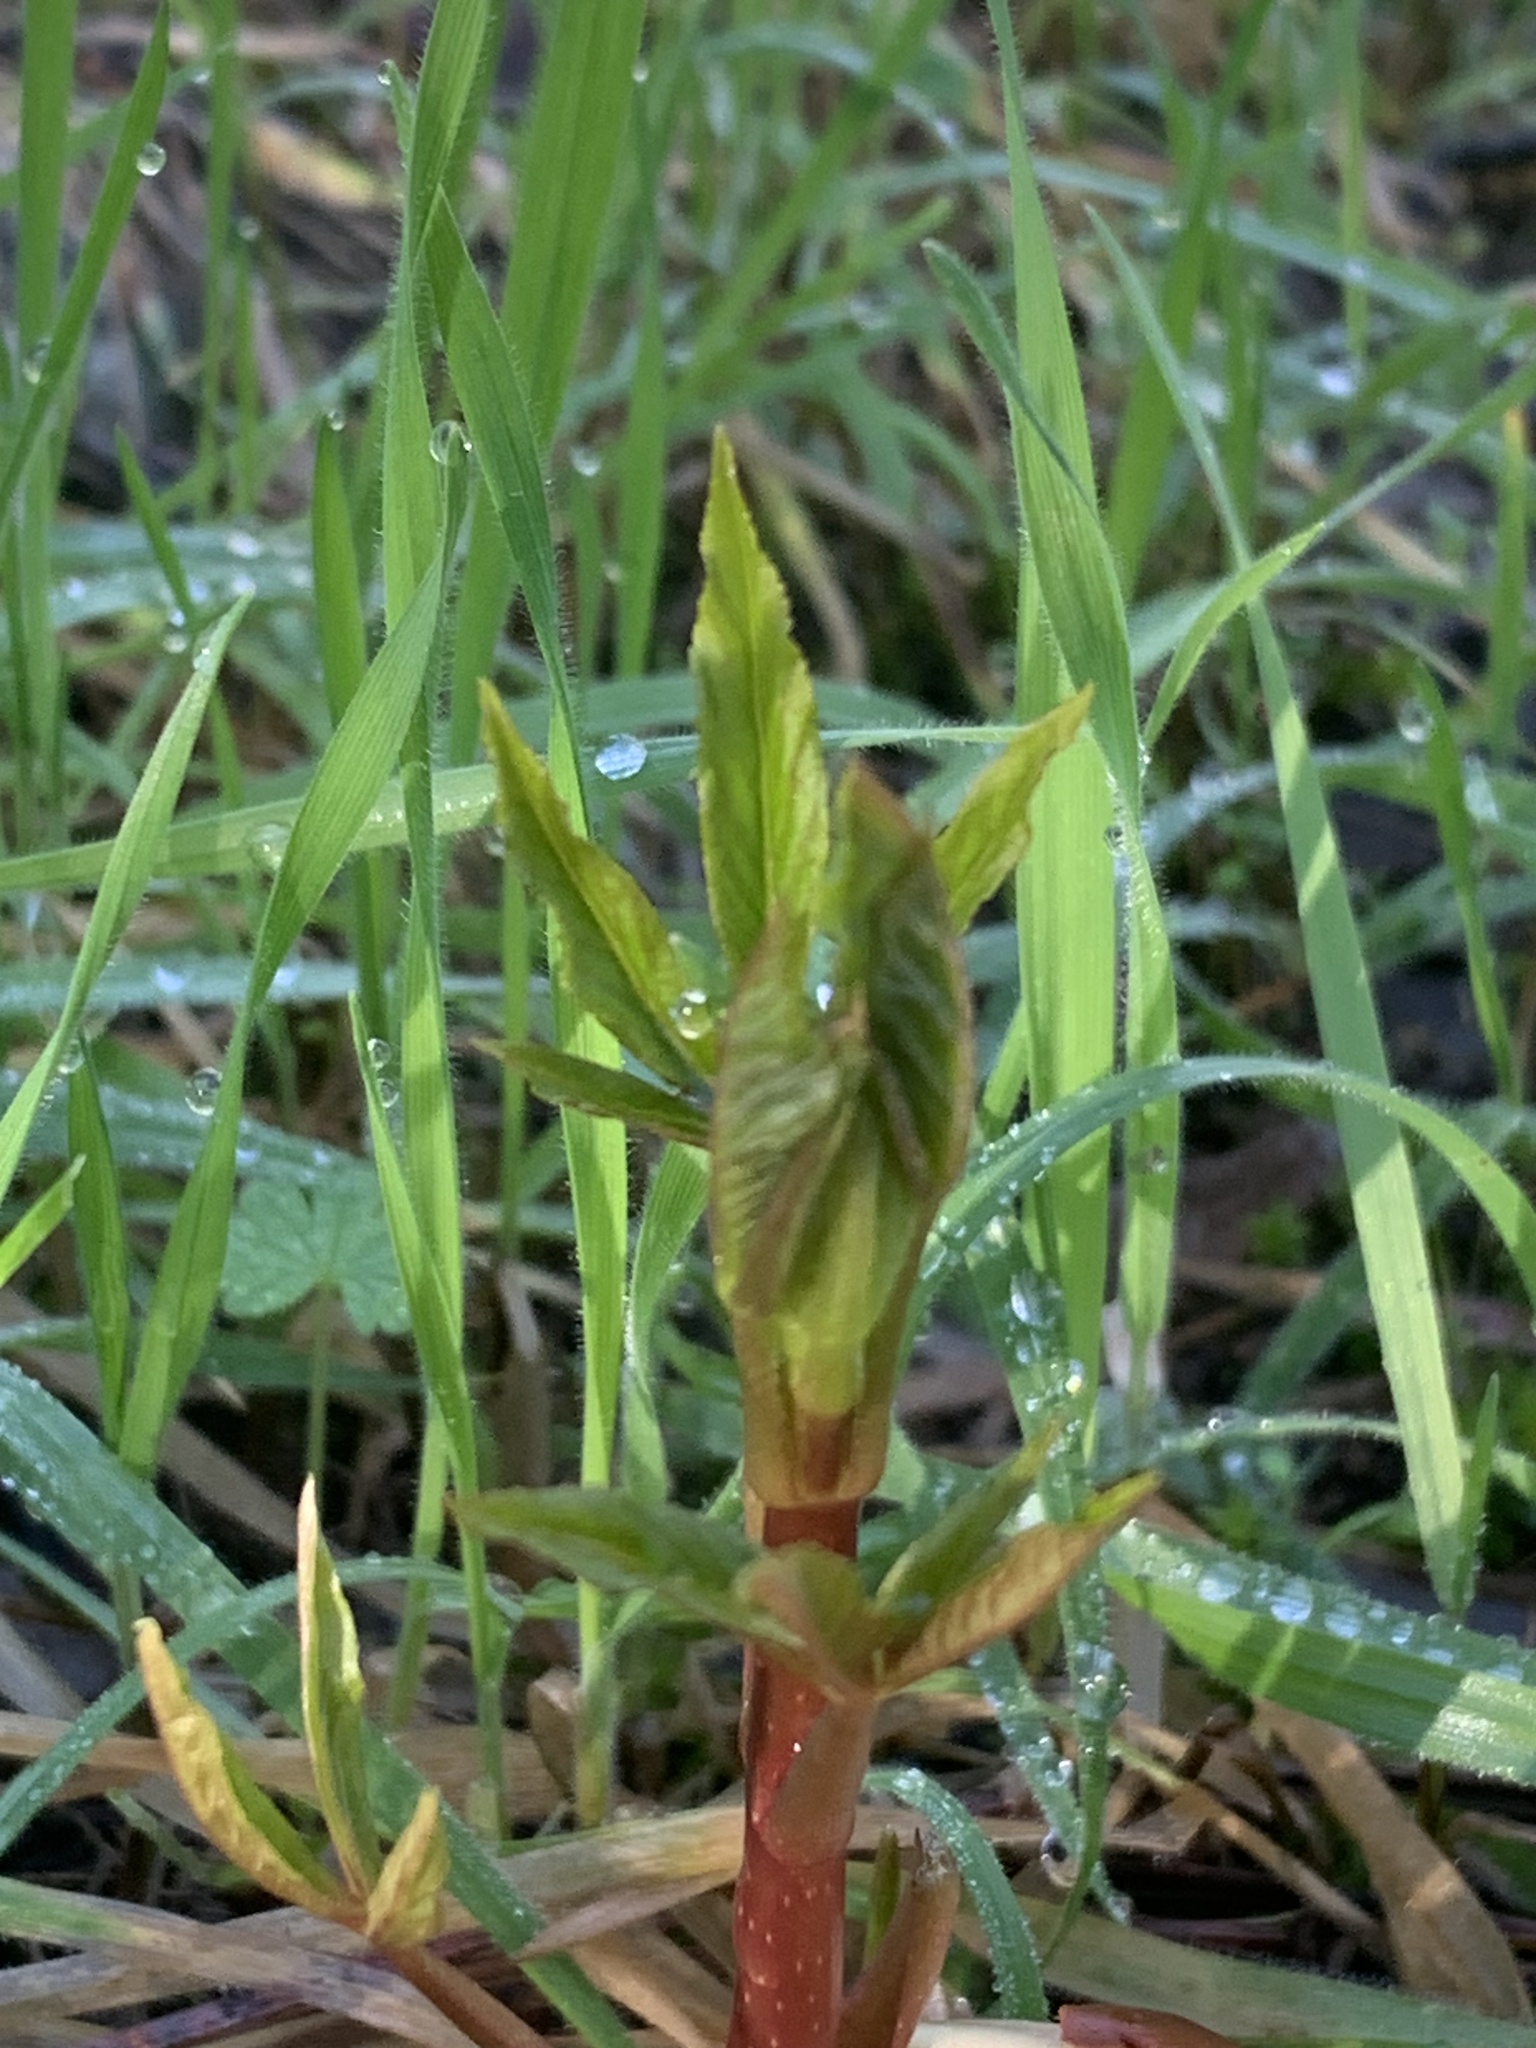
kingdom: Plantae
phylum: Tracheophyta
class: Magnoliopsida
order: Sapindales
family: Sapindaceae
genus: Aesculus
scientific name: Aesculus californica
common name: California buckeye
